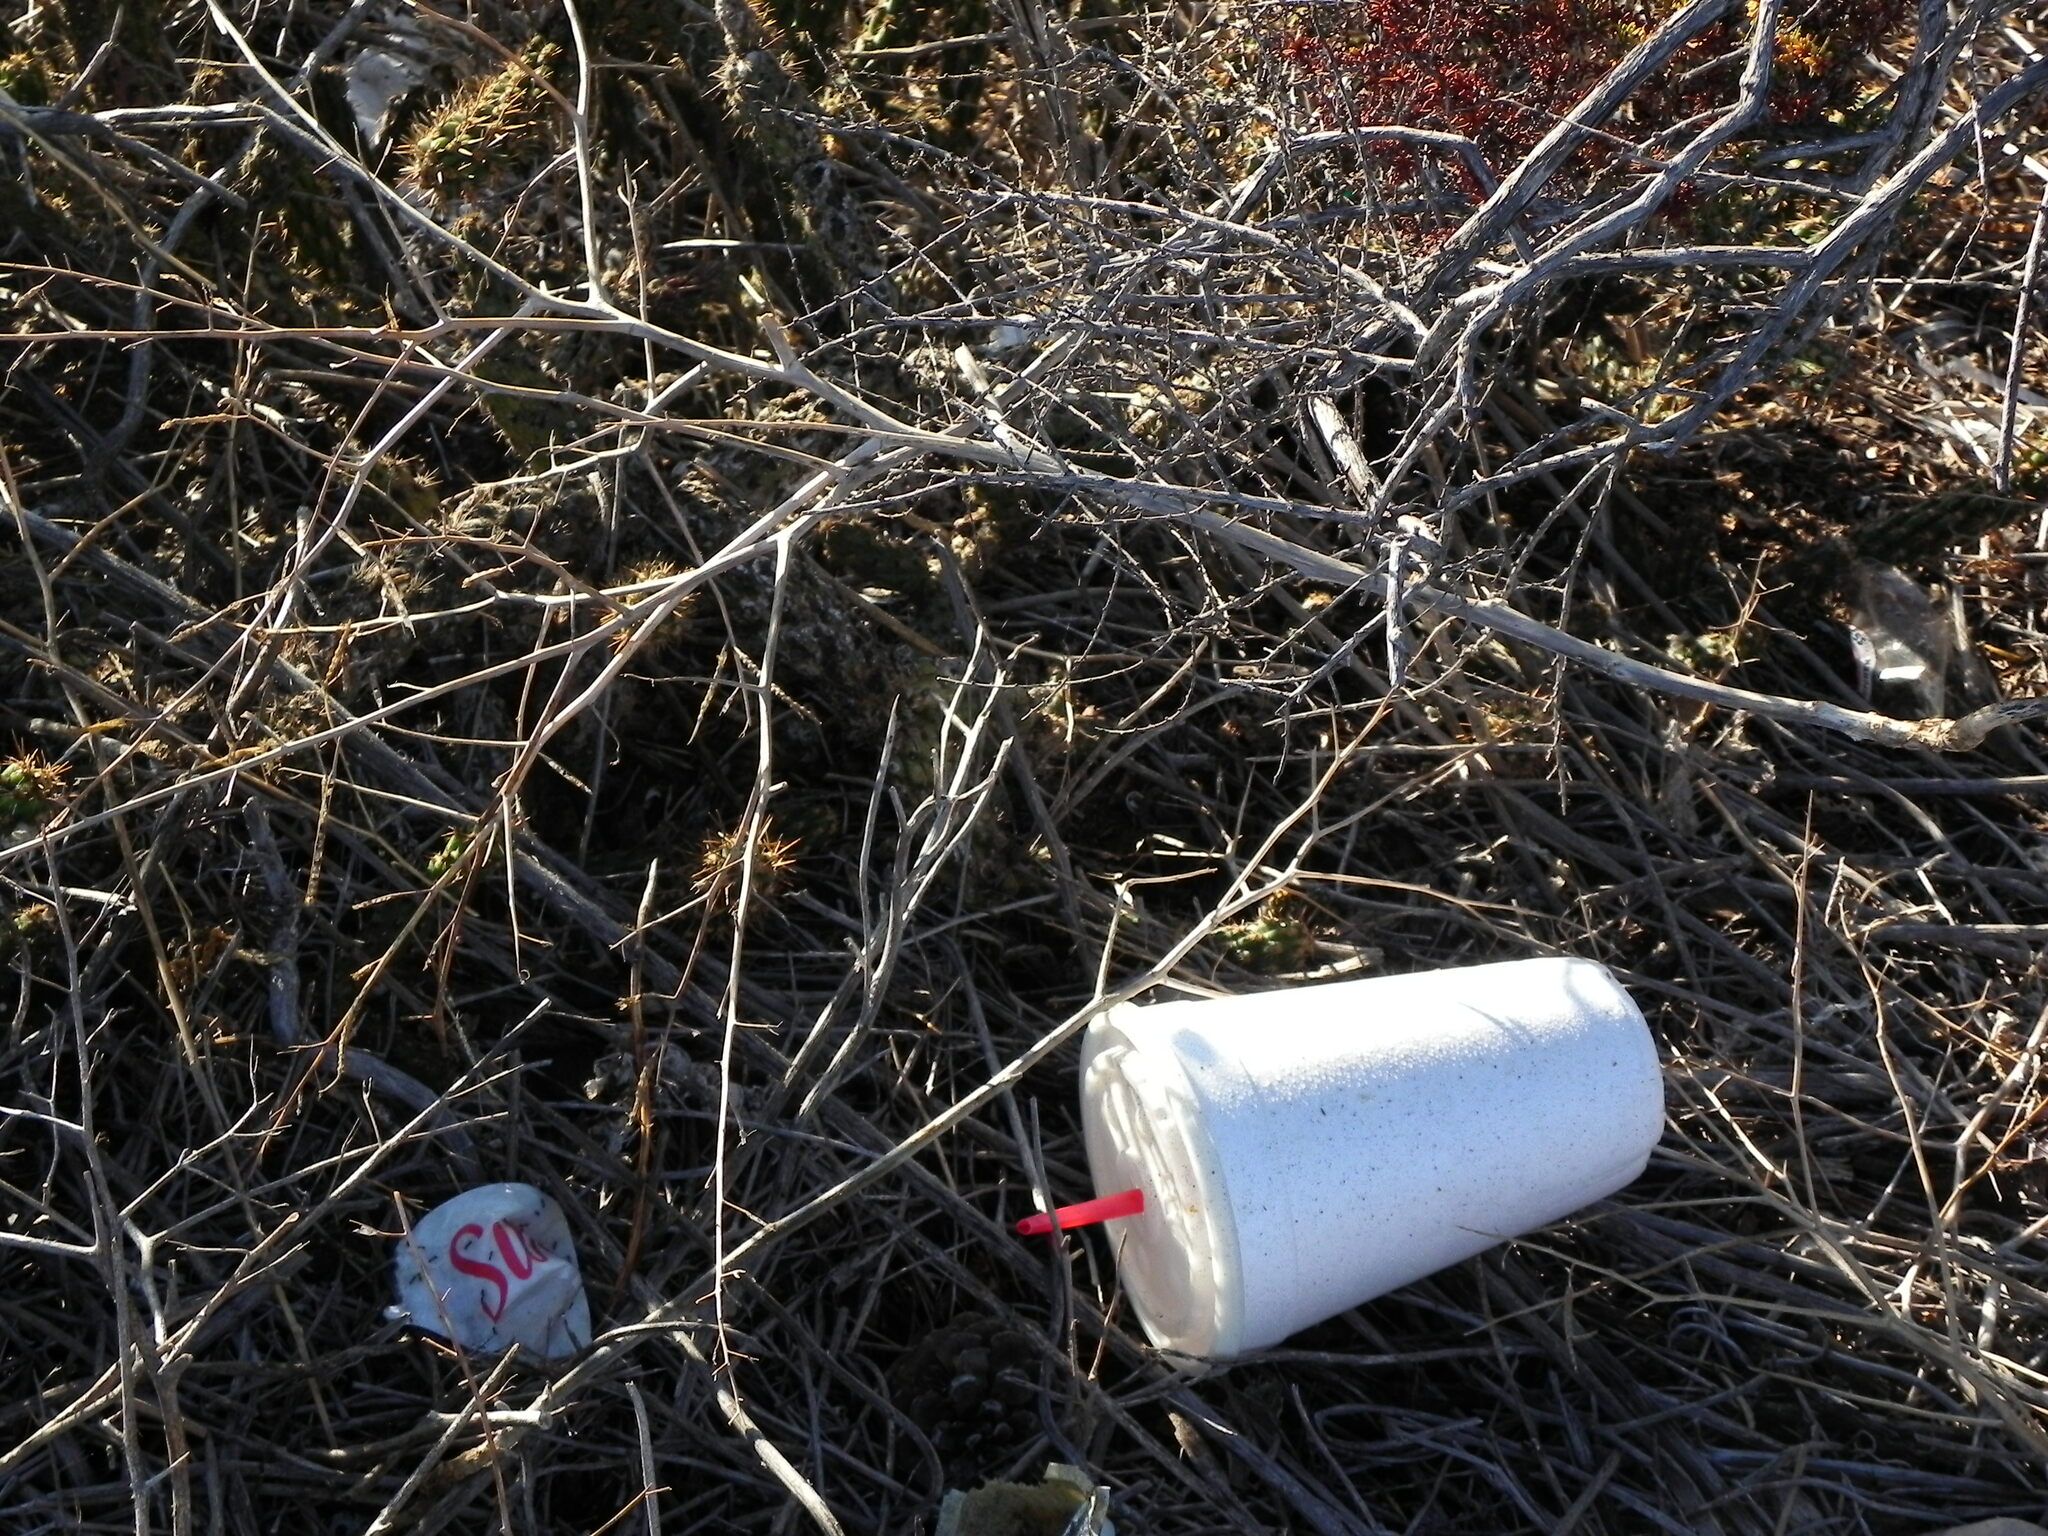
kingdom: Plantae
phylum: Tracheophyta
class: Magnoliopsida
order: Caryophyllales
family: Cactaceae
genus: Cylindropuntia
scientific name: Cylindropuntia californica
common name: Snake cholla
